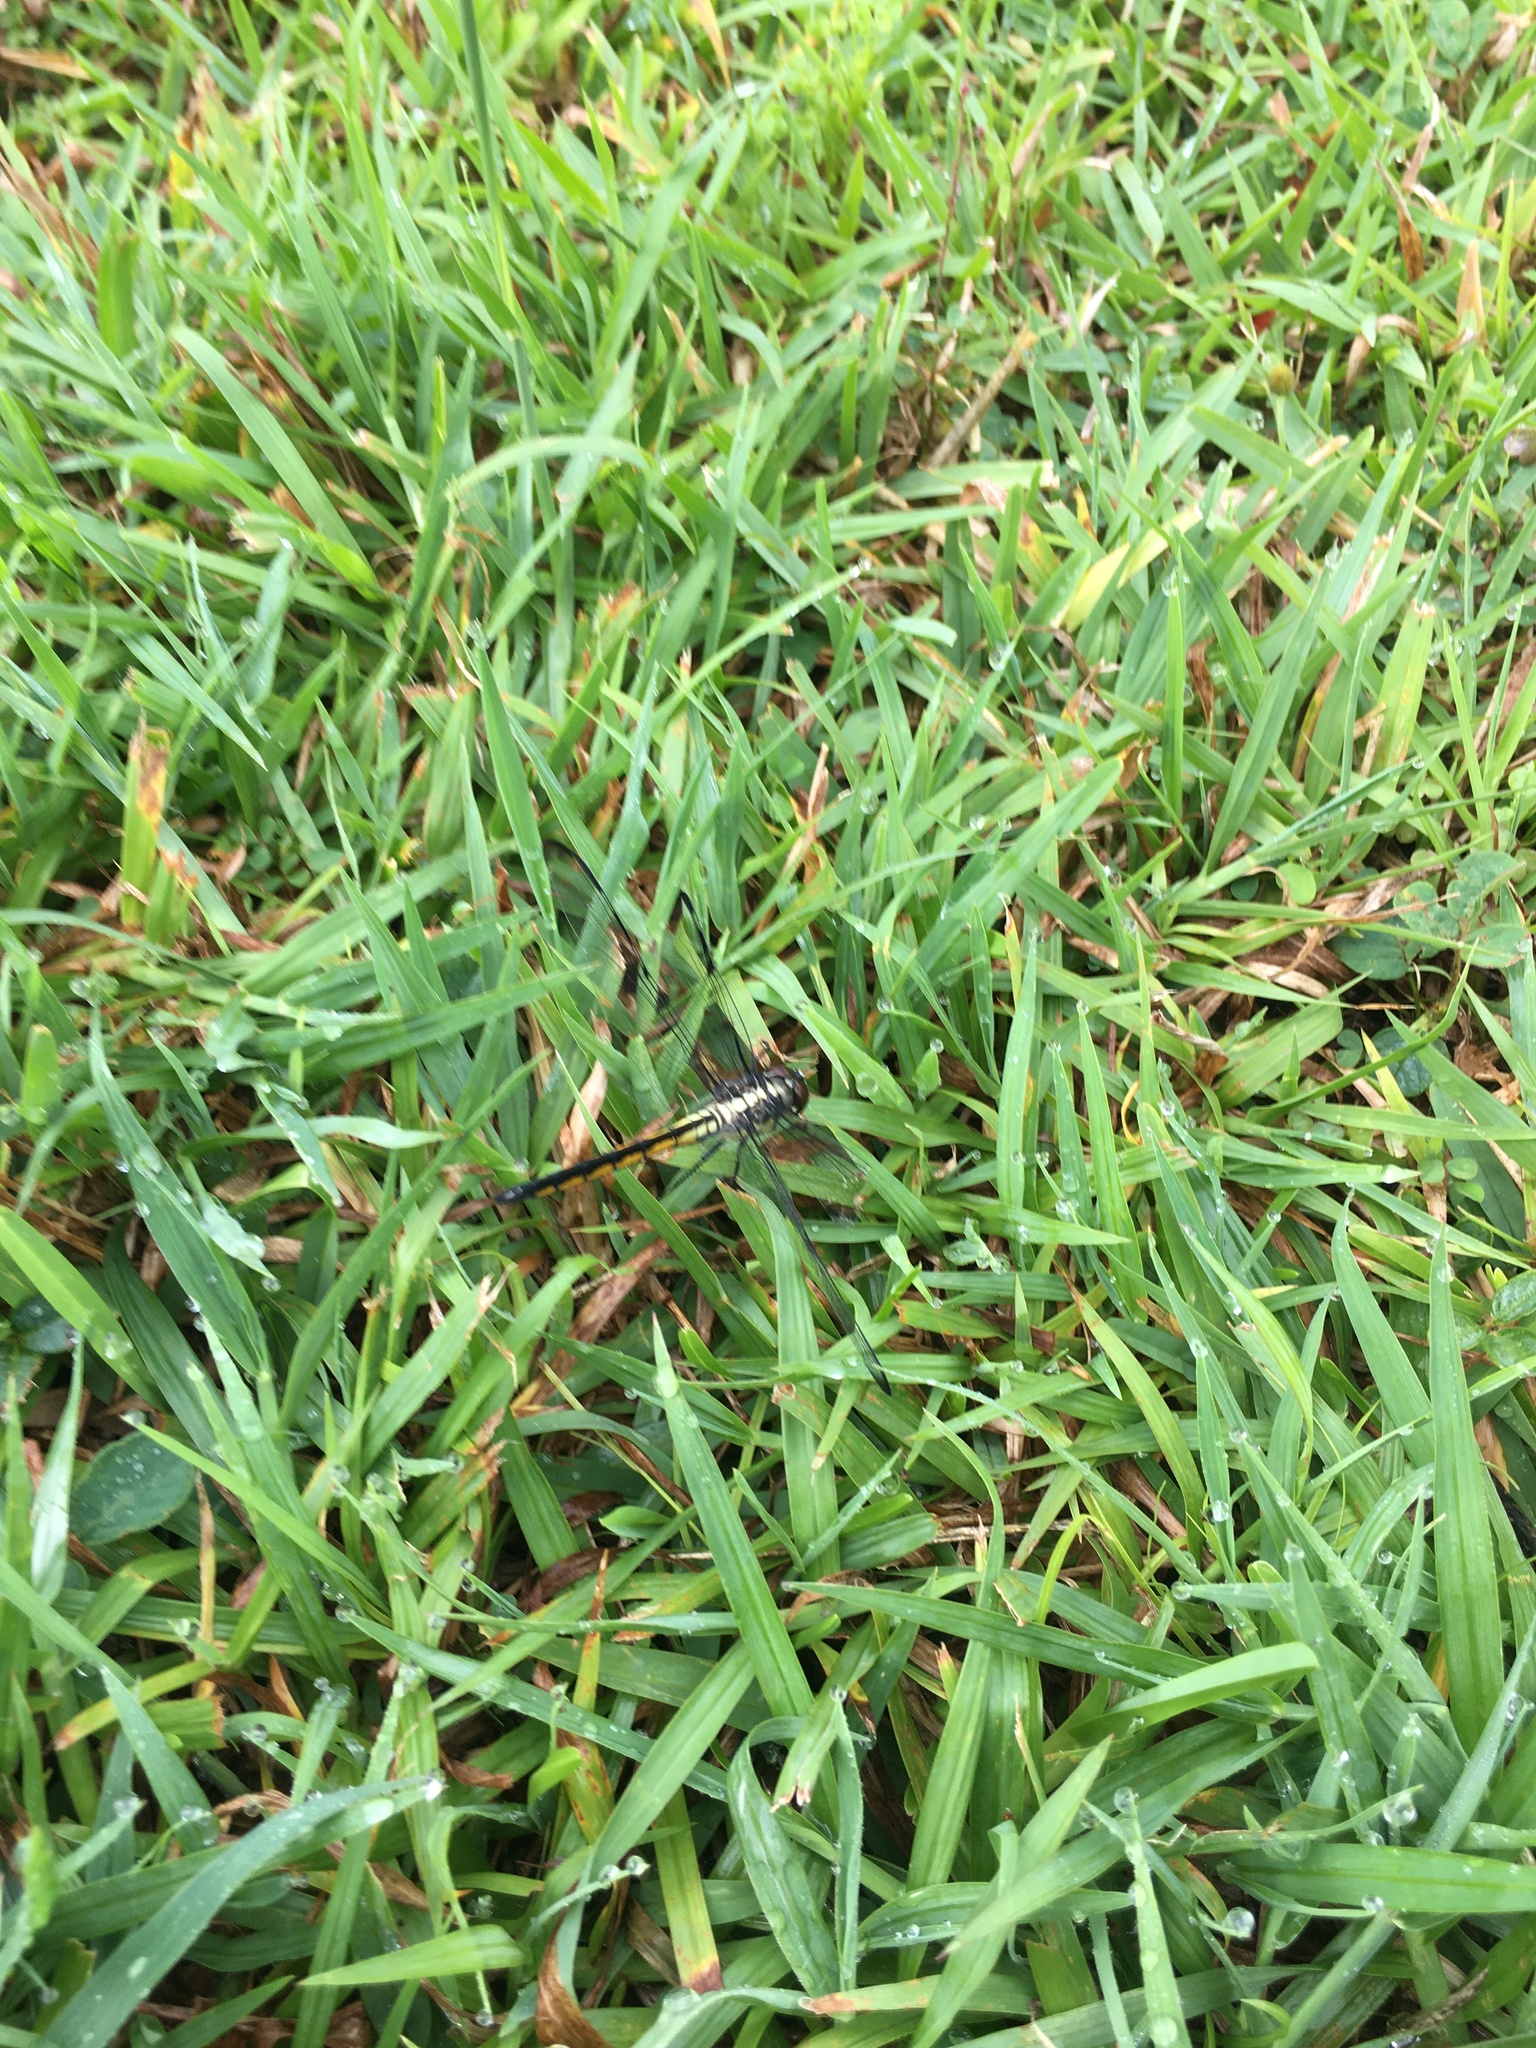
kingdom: Animalia
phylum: Arthropoda
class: Insecta
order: Odonata
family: Libellulidae
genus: Libellula
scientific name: Libellula axilena
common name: Bar-winged skimmer
